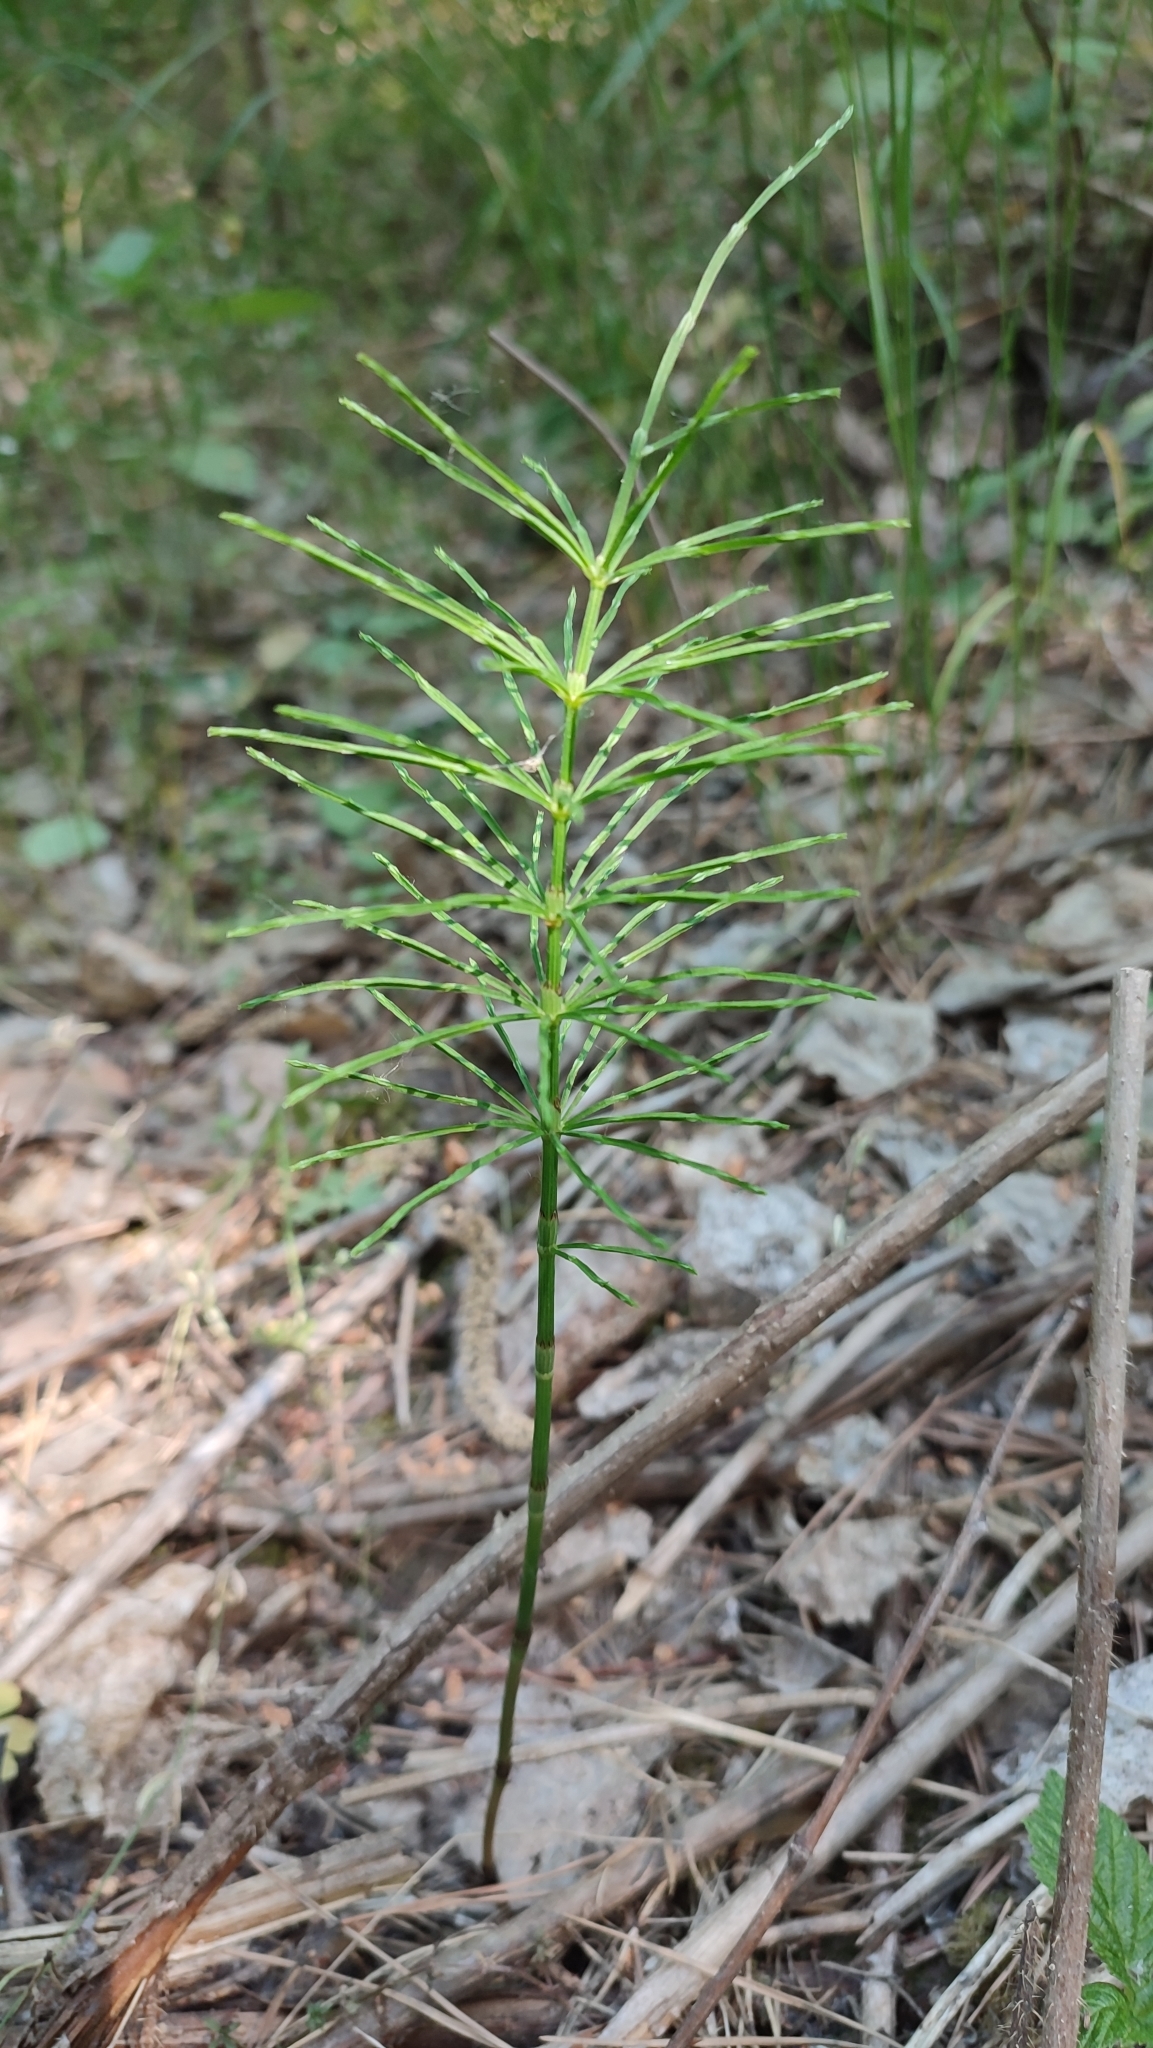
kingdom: Plantae
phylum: Tracheophyta
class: Polypodiopsida
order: Equisetales
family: Equisetaceae
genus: Equisetum
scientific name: Equisetum arvense
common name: Field horsetail
